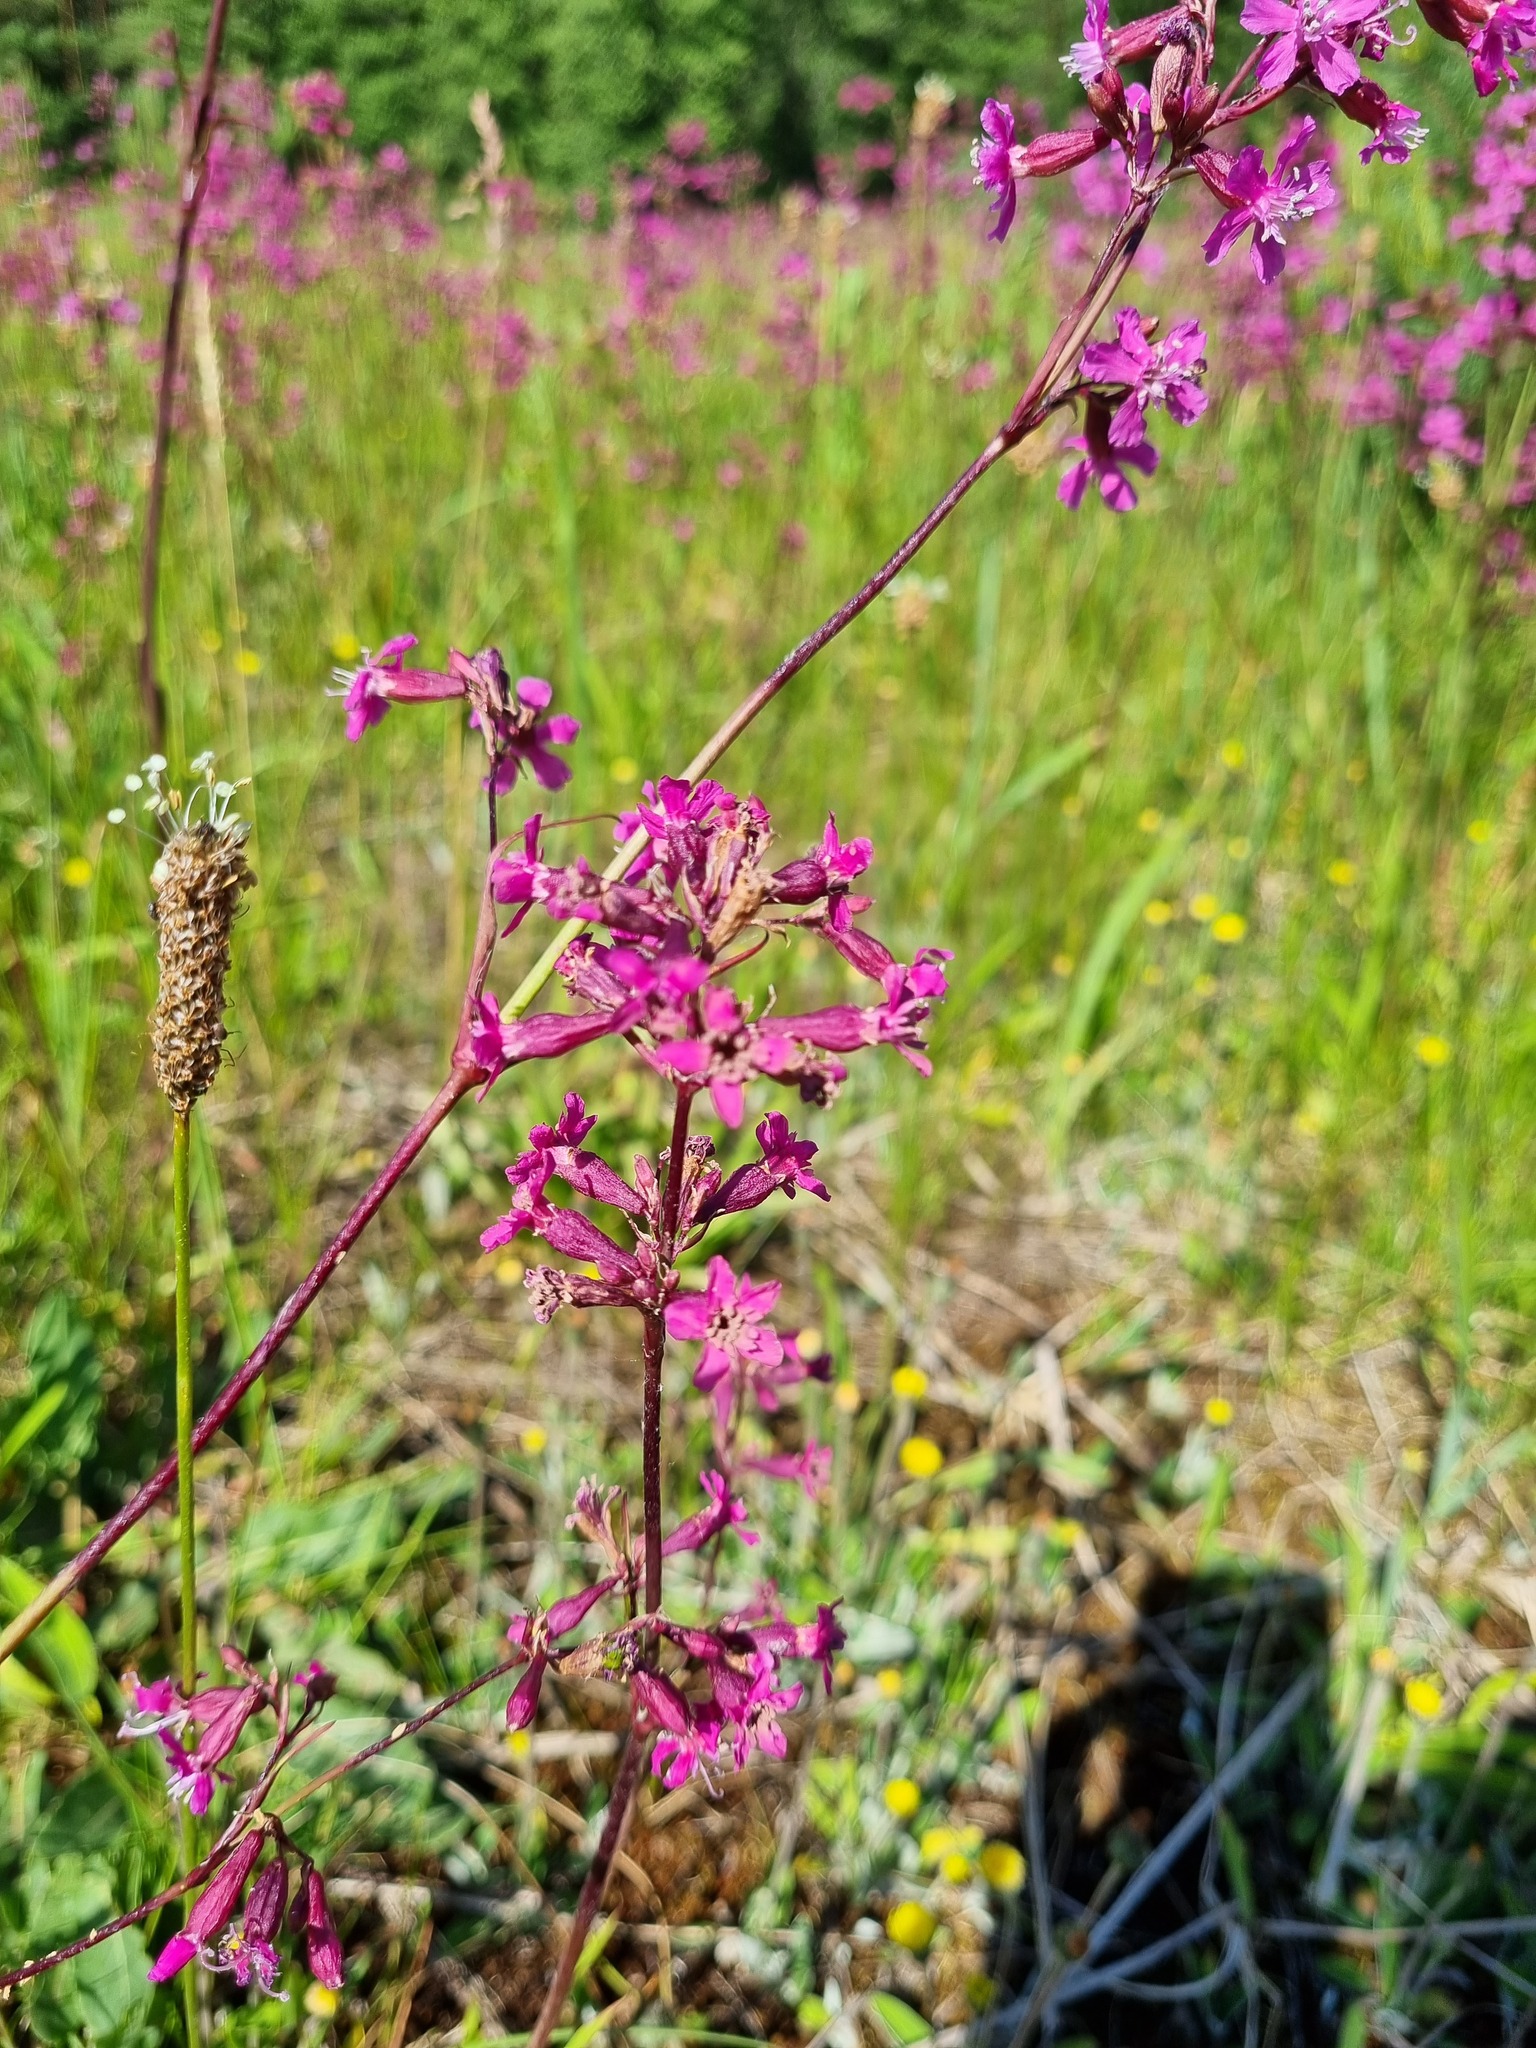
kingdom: Plantae
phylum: Tracheophyta
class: Magnoliopsida
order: Caryophyllales
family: Caryophyllaceae
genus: Viscaria
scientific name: Viscaria vulgaris
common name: Clammy campion
